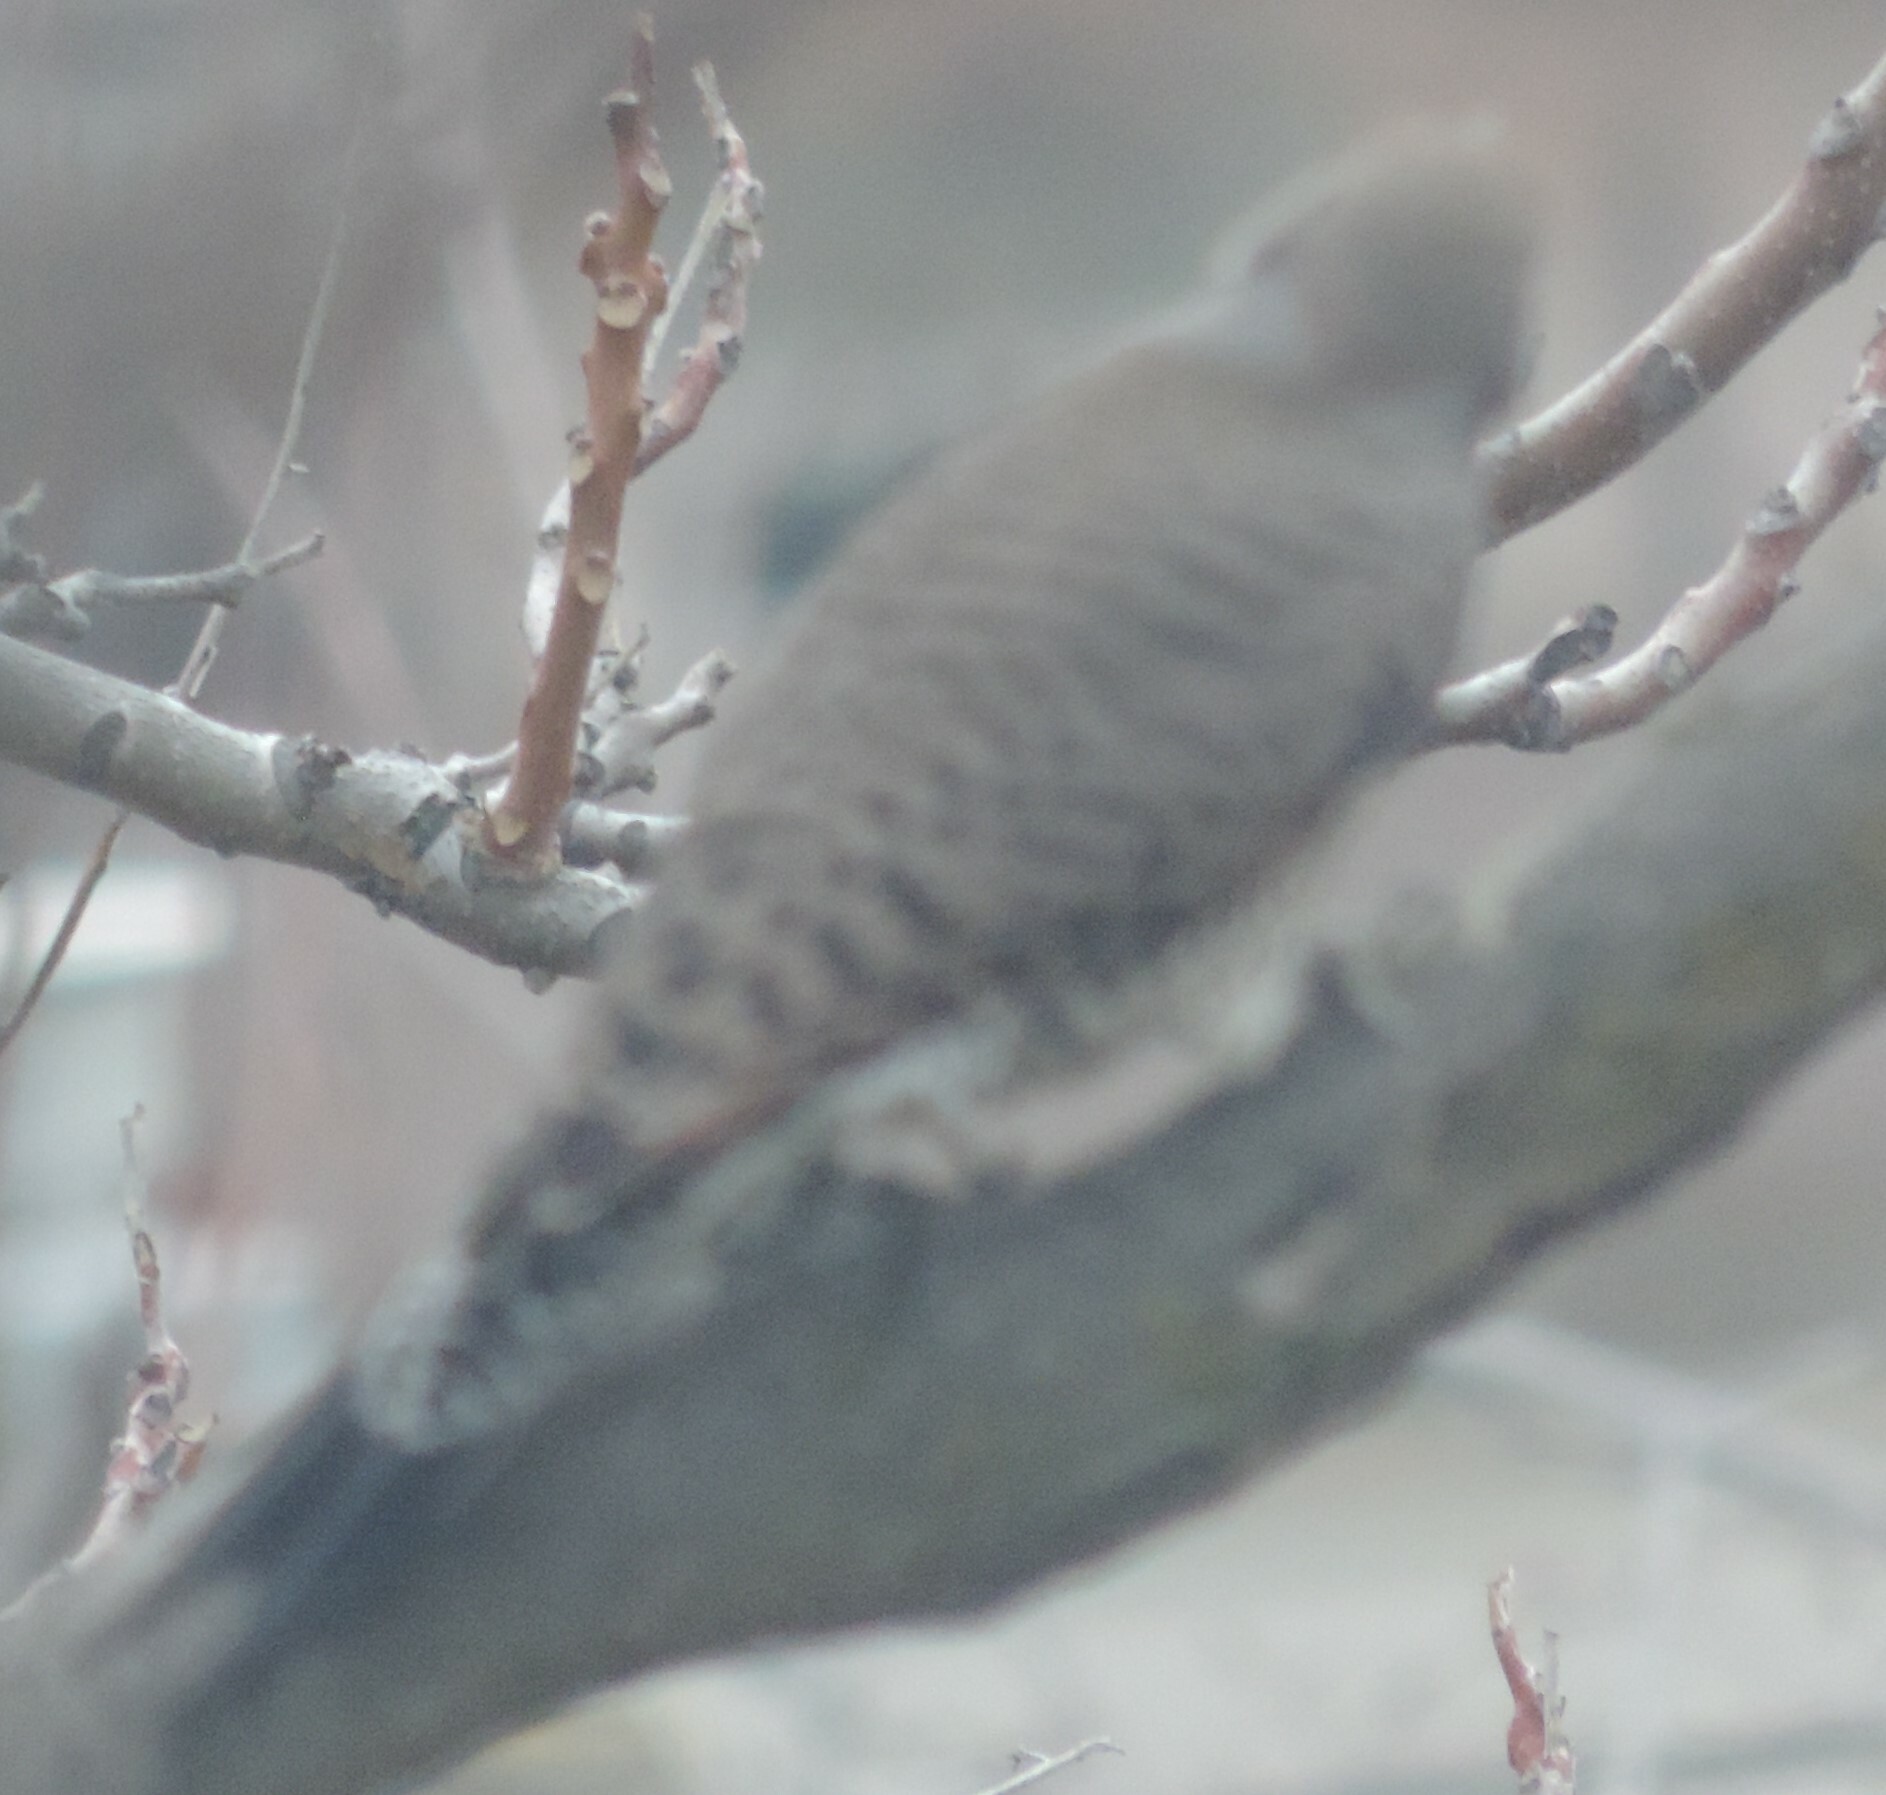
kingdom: Animalia
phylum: Chordata
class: Aves
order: Piciformes
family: Picidae
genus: Colaptes
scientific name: Colaptes auratus
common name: Northern flicker
